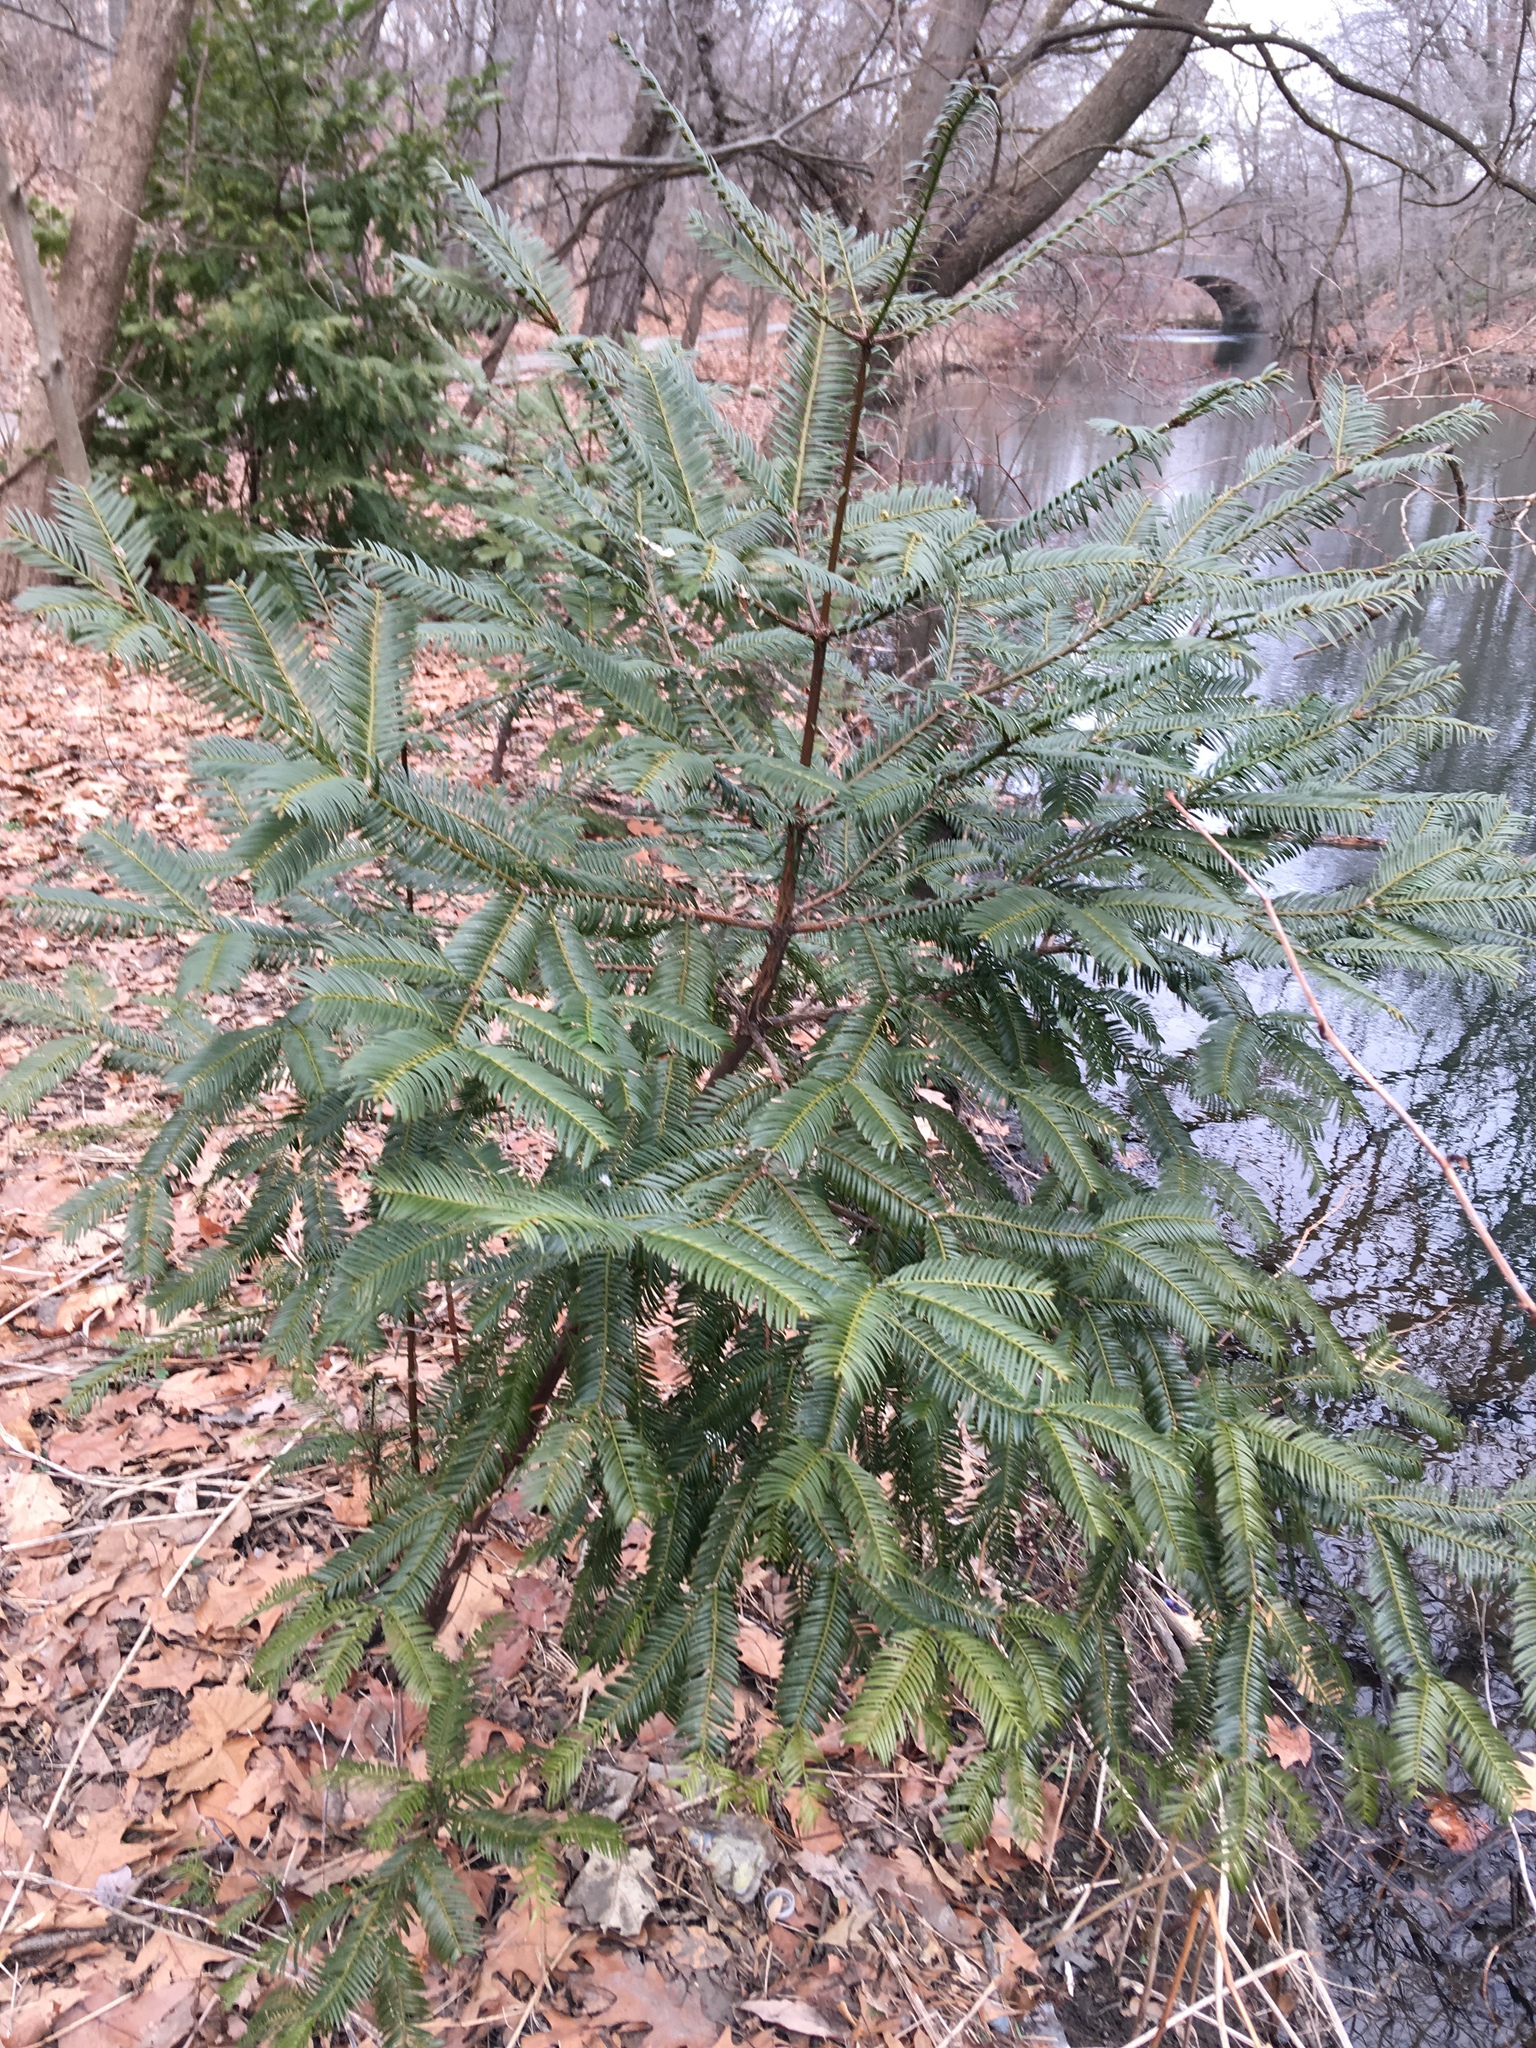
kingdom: Plantae
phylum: Tracheophyta
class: Pinopsida
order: Pinales
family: Cephalotaxaceae
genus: Cephalotaxus
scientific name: Cephalotaxus harringtonia
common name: Japanese plum-yew
